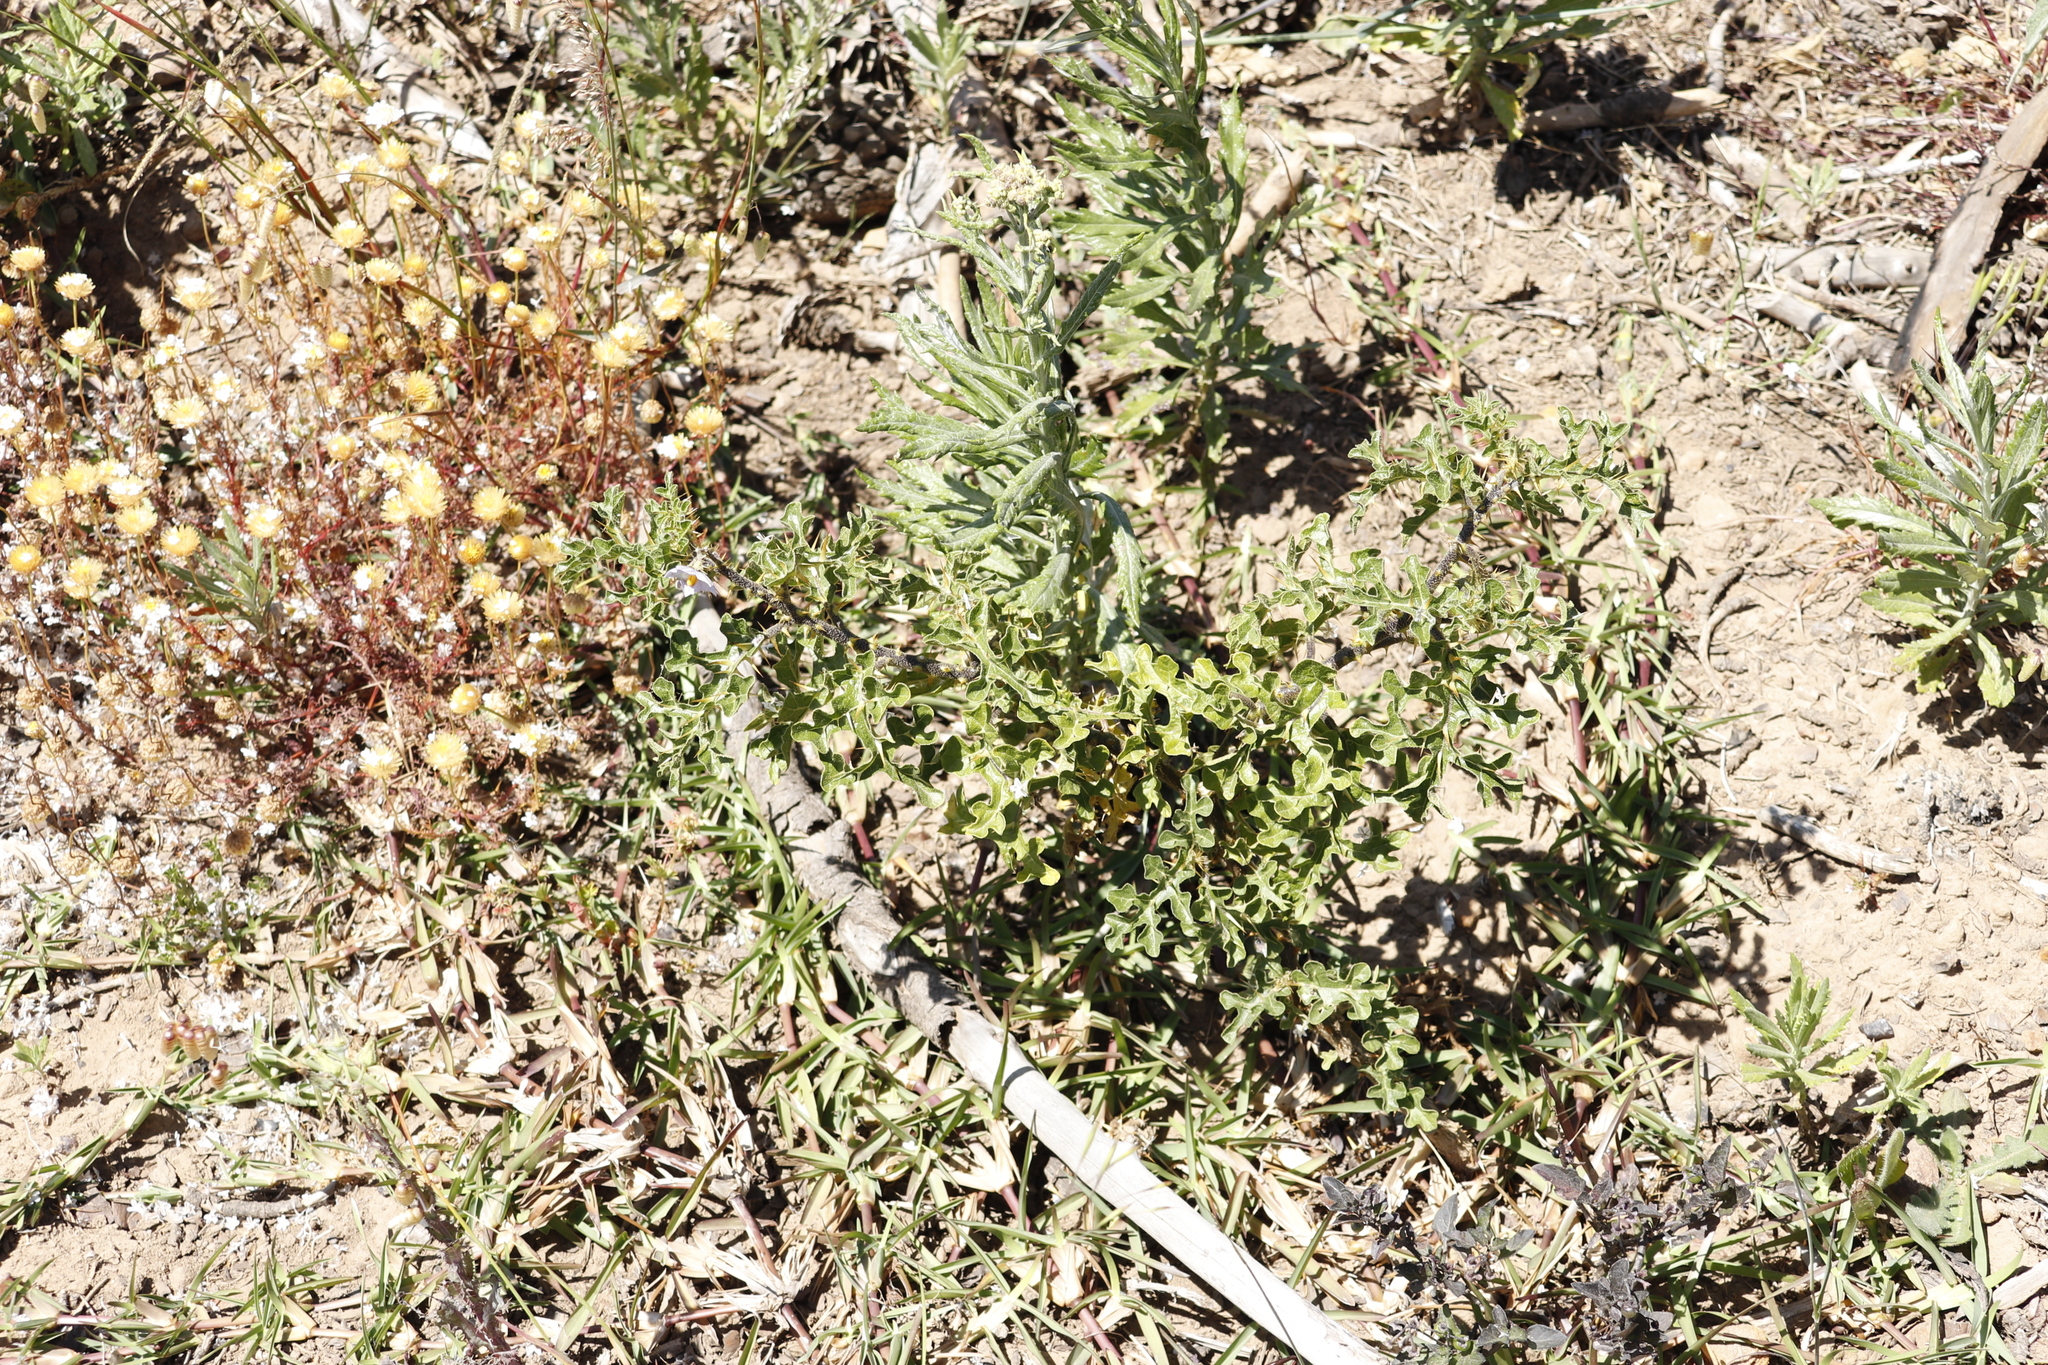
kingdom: Plantae
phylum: Tracheophyta
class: Magnoliopsida
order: Solanales
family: Solanaceae
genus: Solanum
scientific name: Solanum linnaeanum
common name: Nightshade
